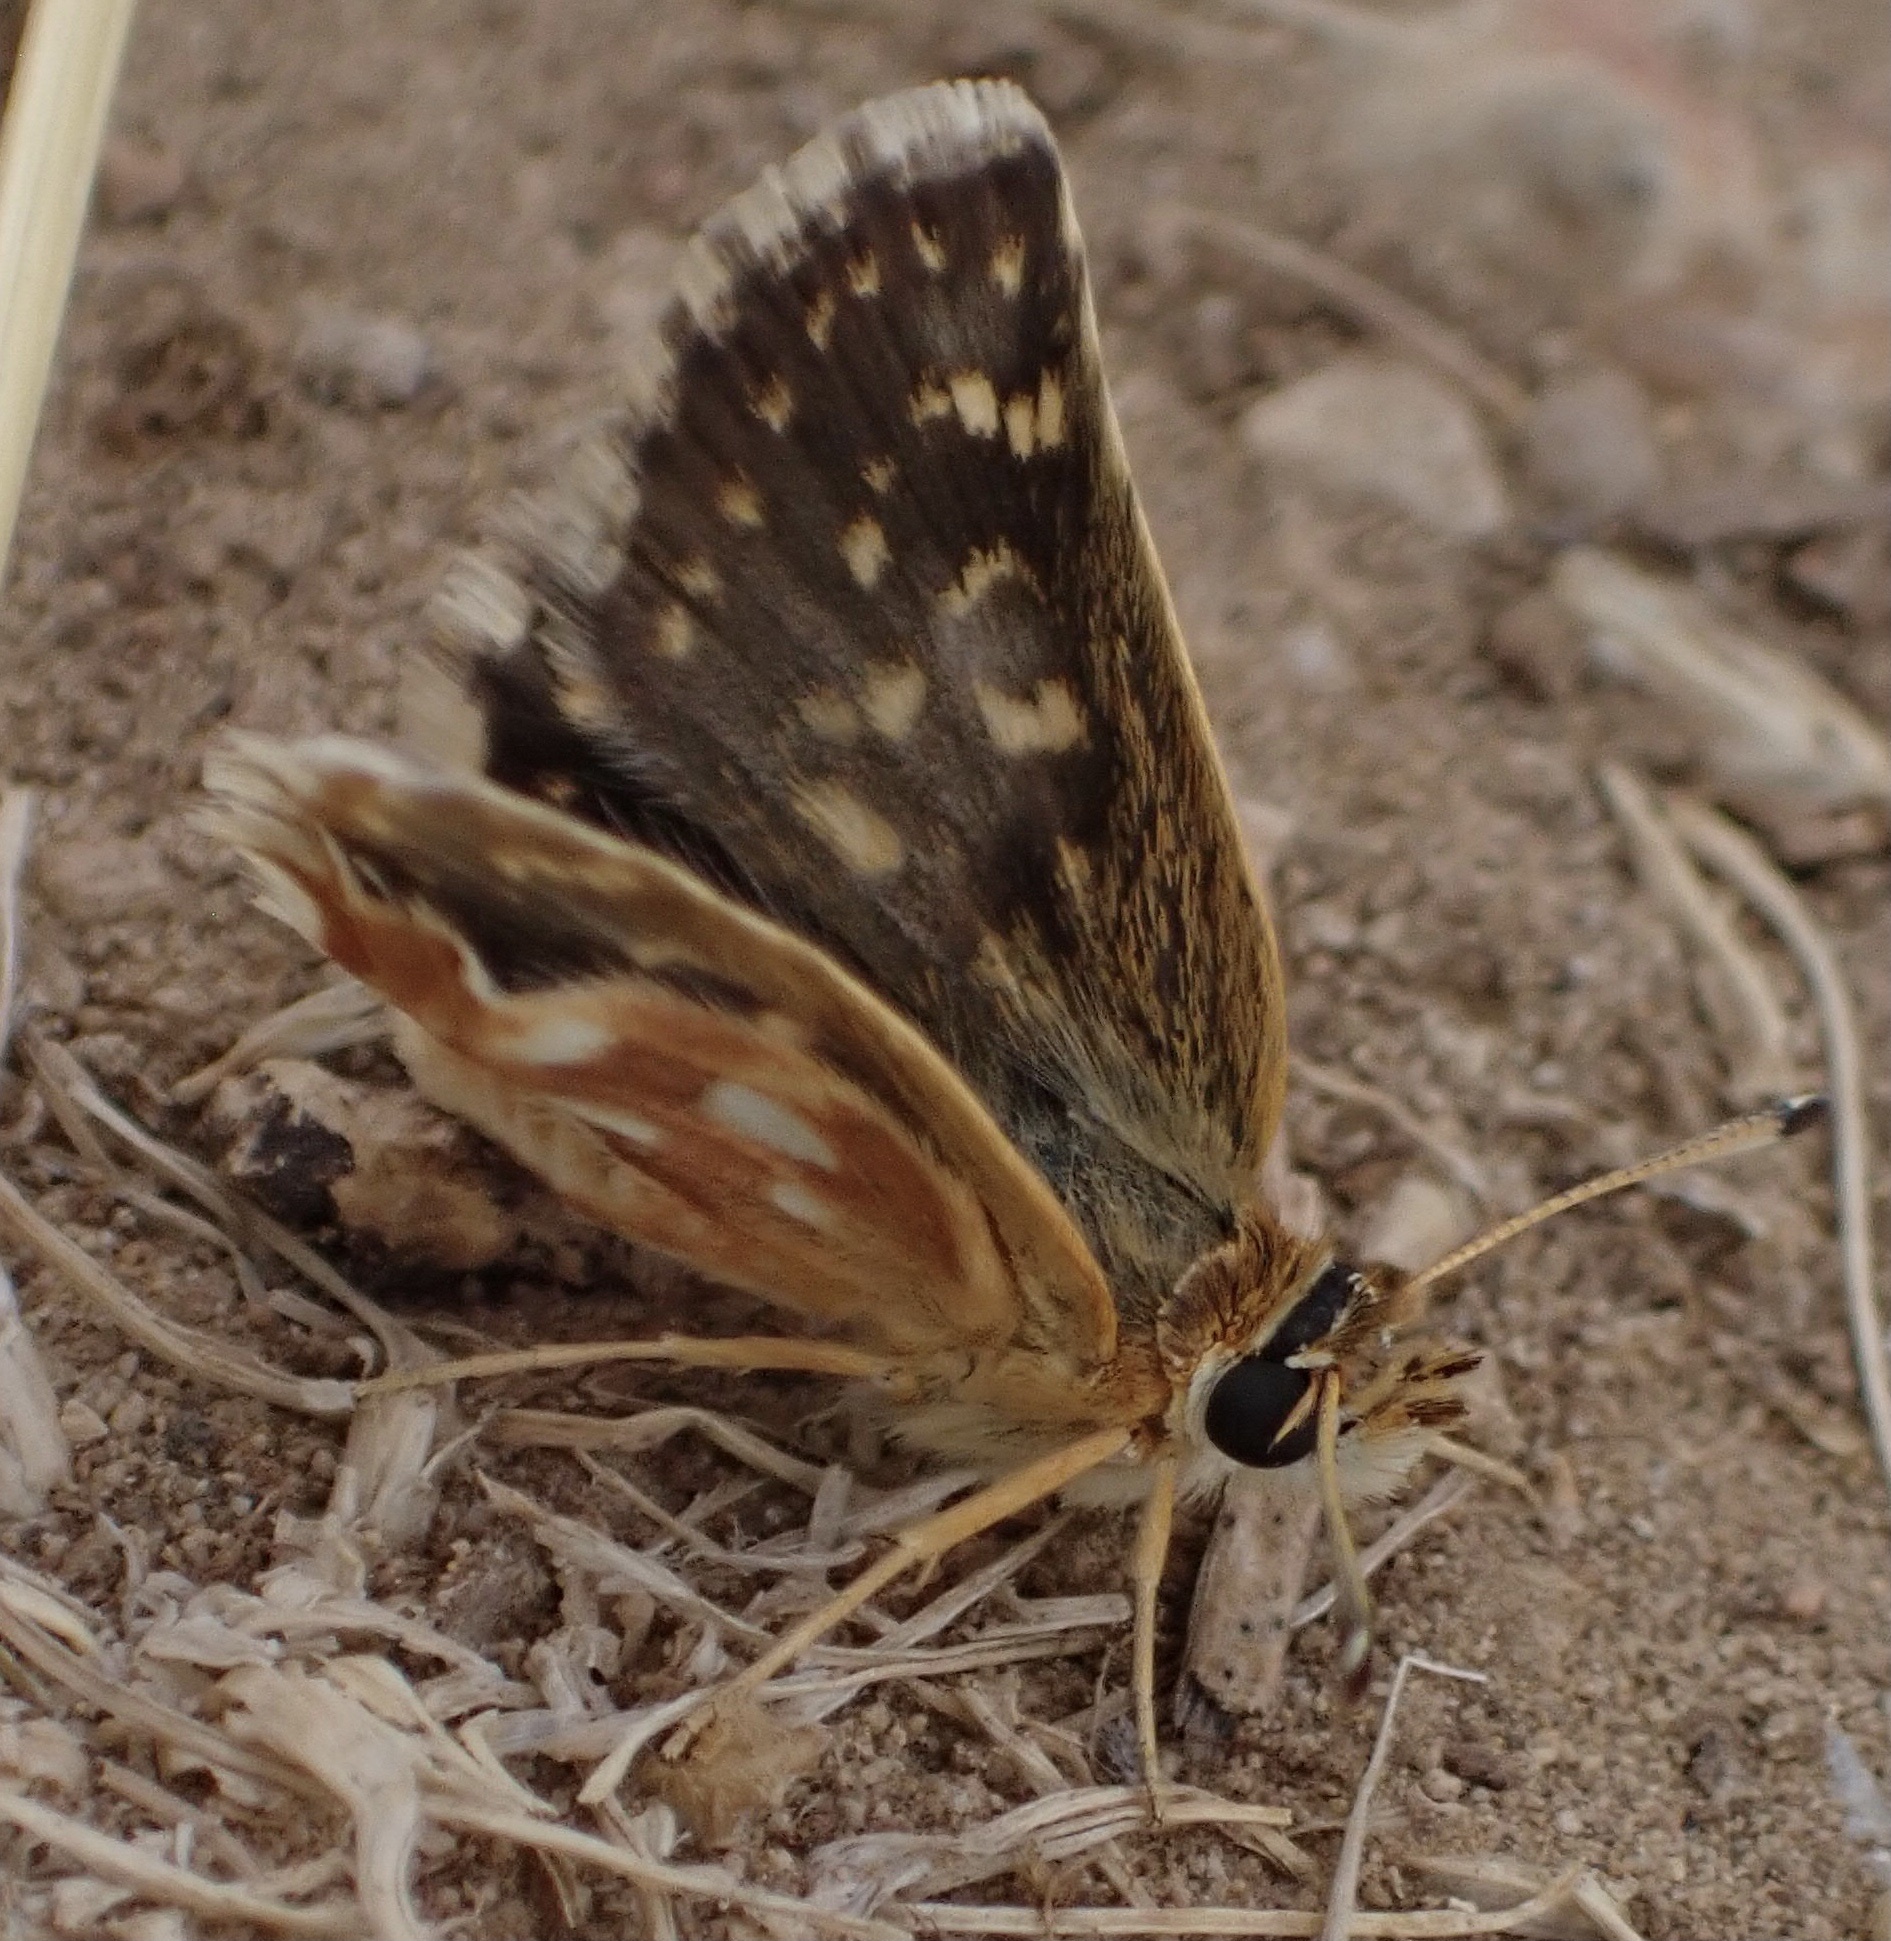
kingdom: Animalia
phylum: Arthropoda
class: Insecta
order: Lepidoptera
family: Hesperiidae
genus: Spialia
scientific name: Spialia sertorius
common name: Red underwing skipper
